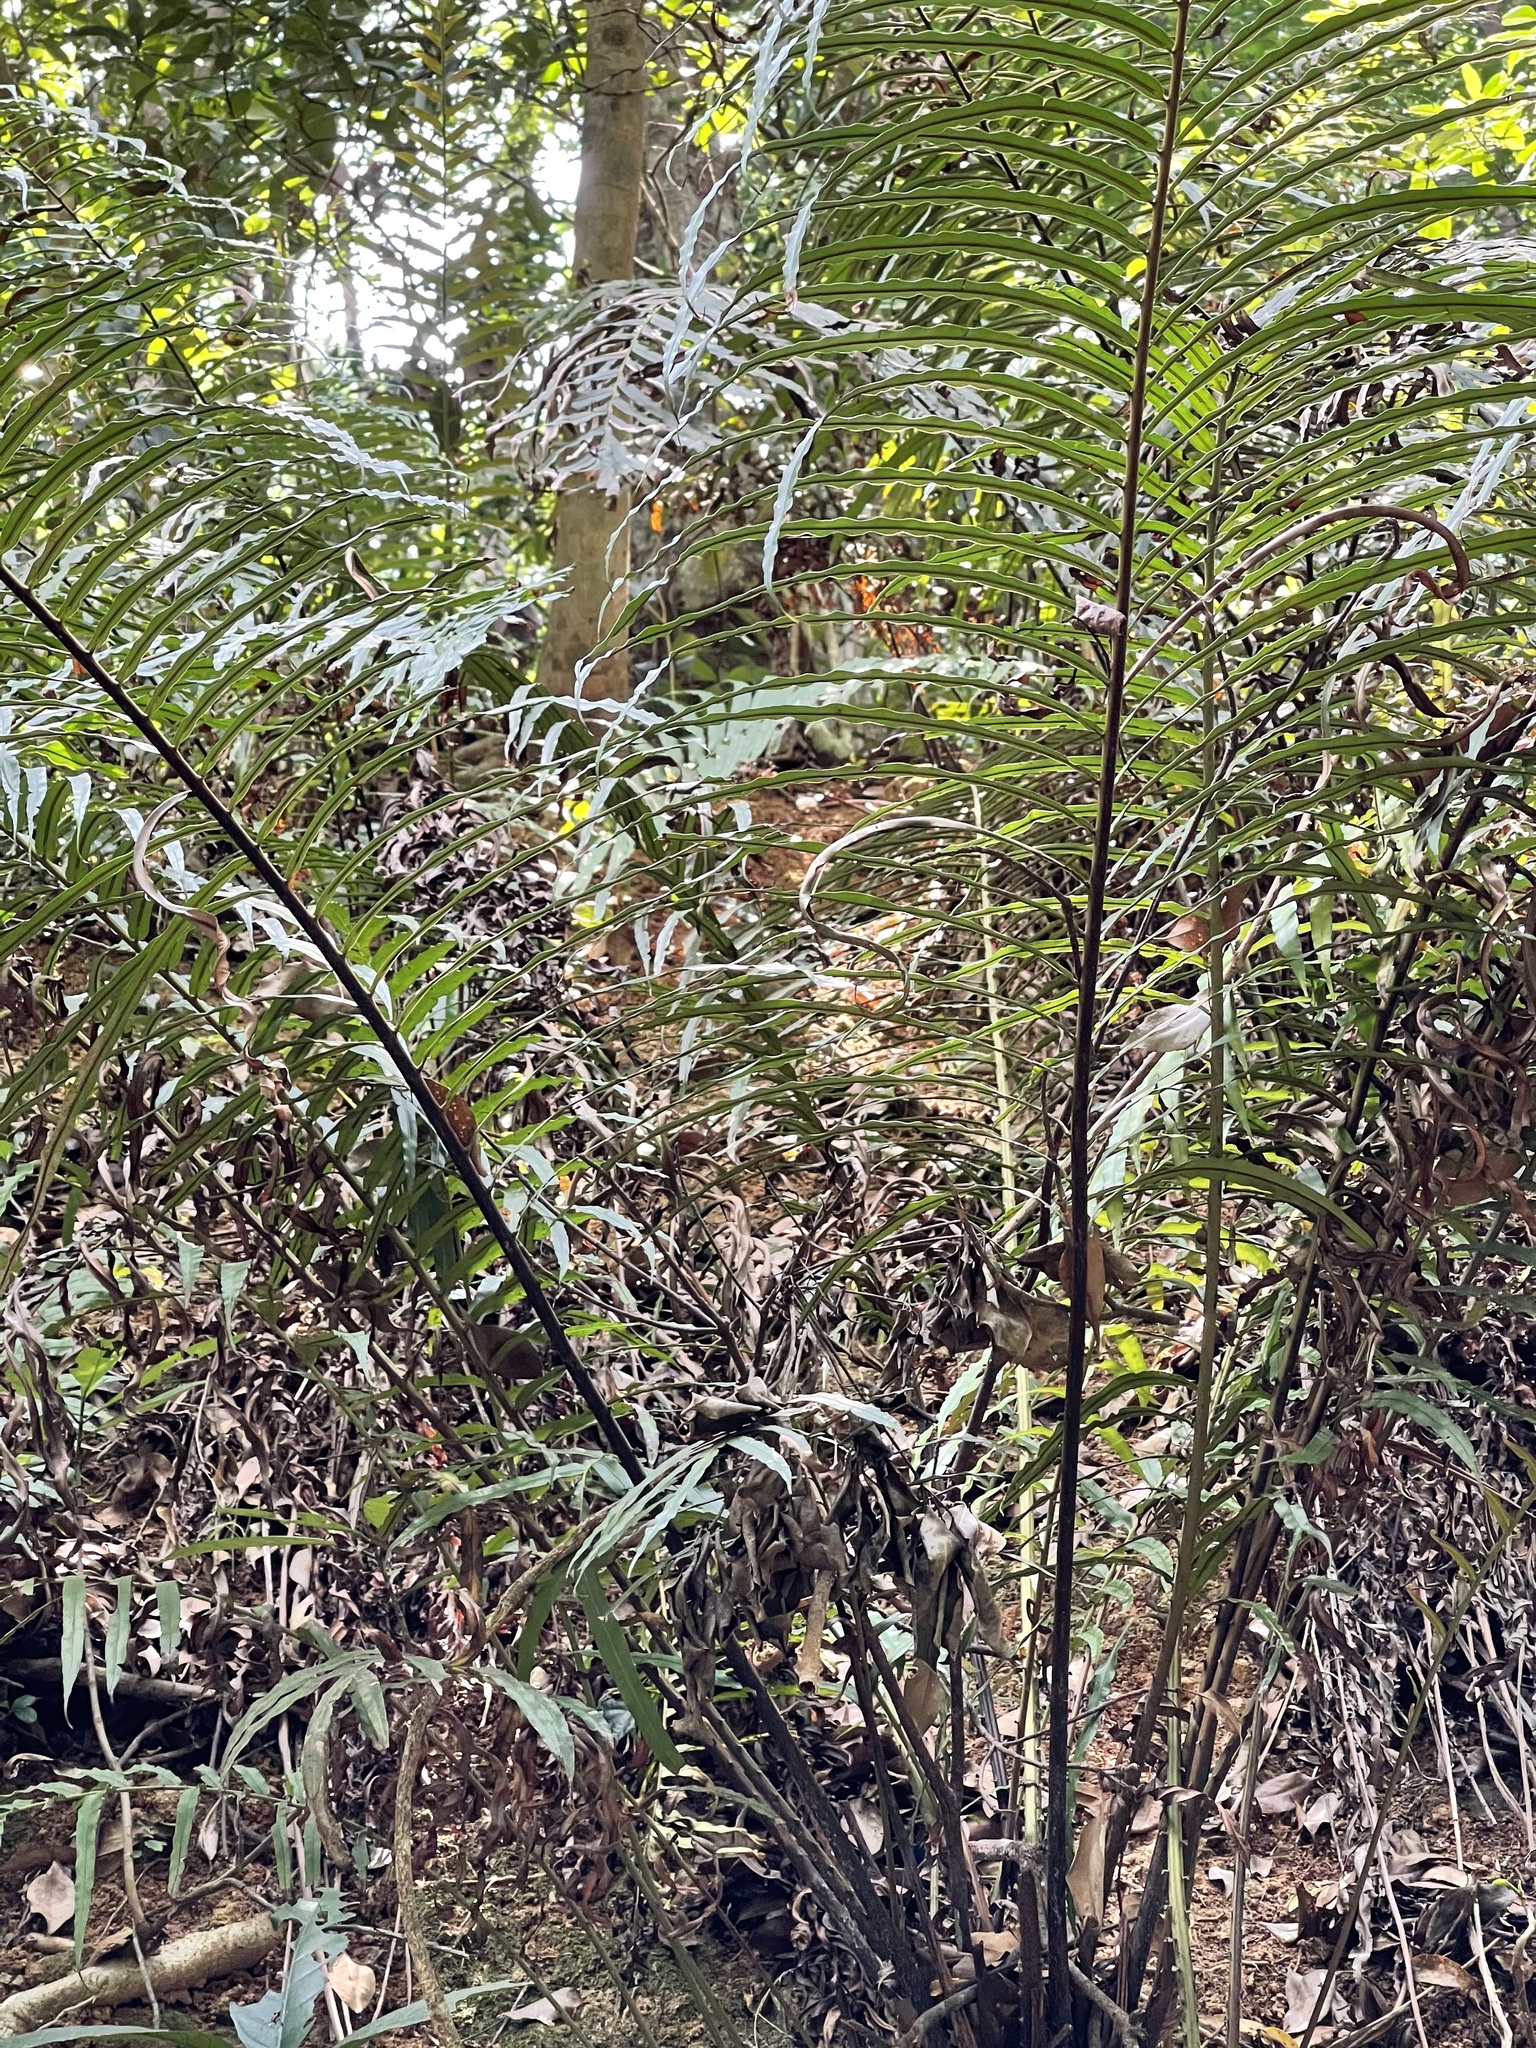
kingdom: Plantae
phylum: Tracheophyta
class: Polypodiopsida
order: Polypodiales
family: Blechnaceae
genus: Blechnopsis
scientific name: Blechnopsis orientalis
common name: Oriental blechnum
